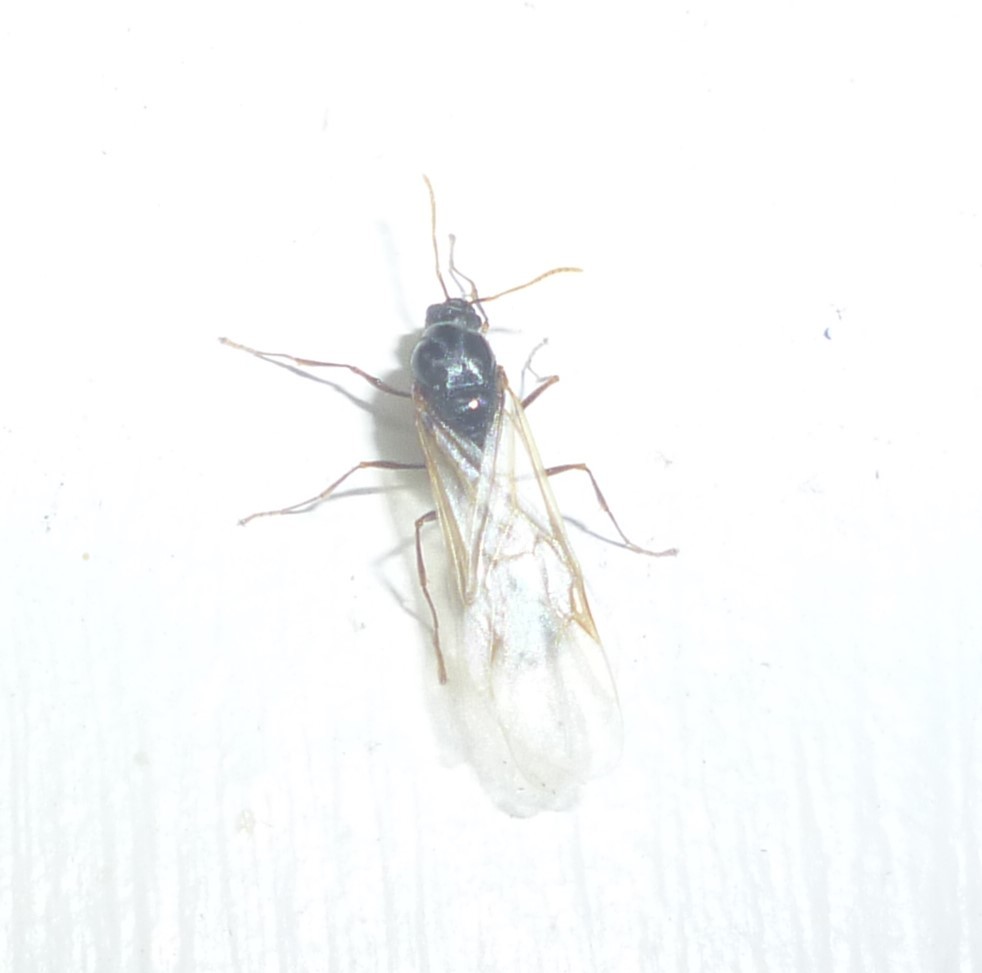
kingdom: Animalia
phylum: Arthropoda
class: Insecta
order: Hymenoptera
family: Formicidae
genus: Tetramorium
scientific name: Tetramorium immigrans
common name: Pavement ant
